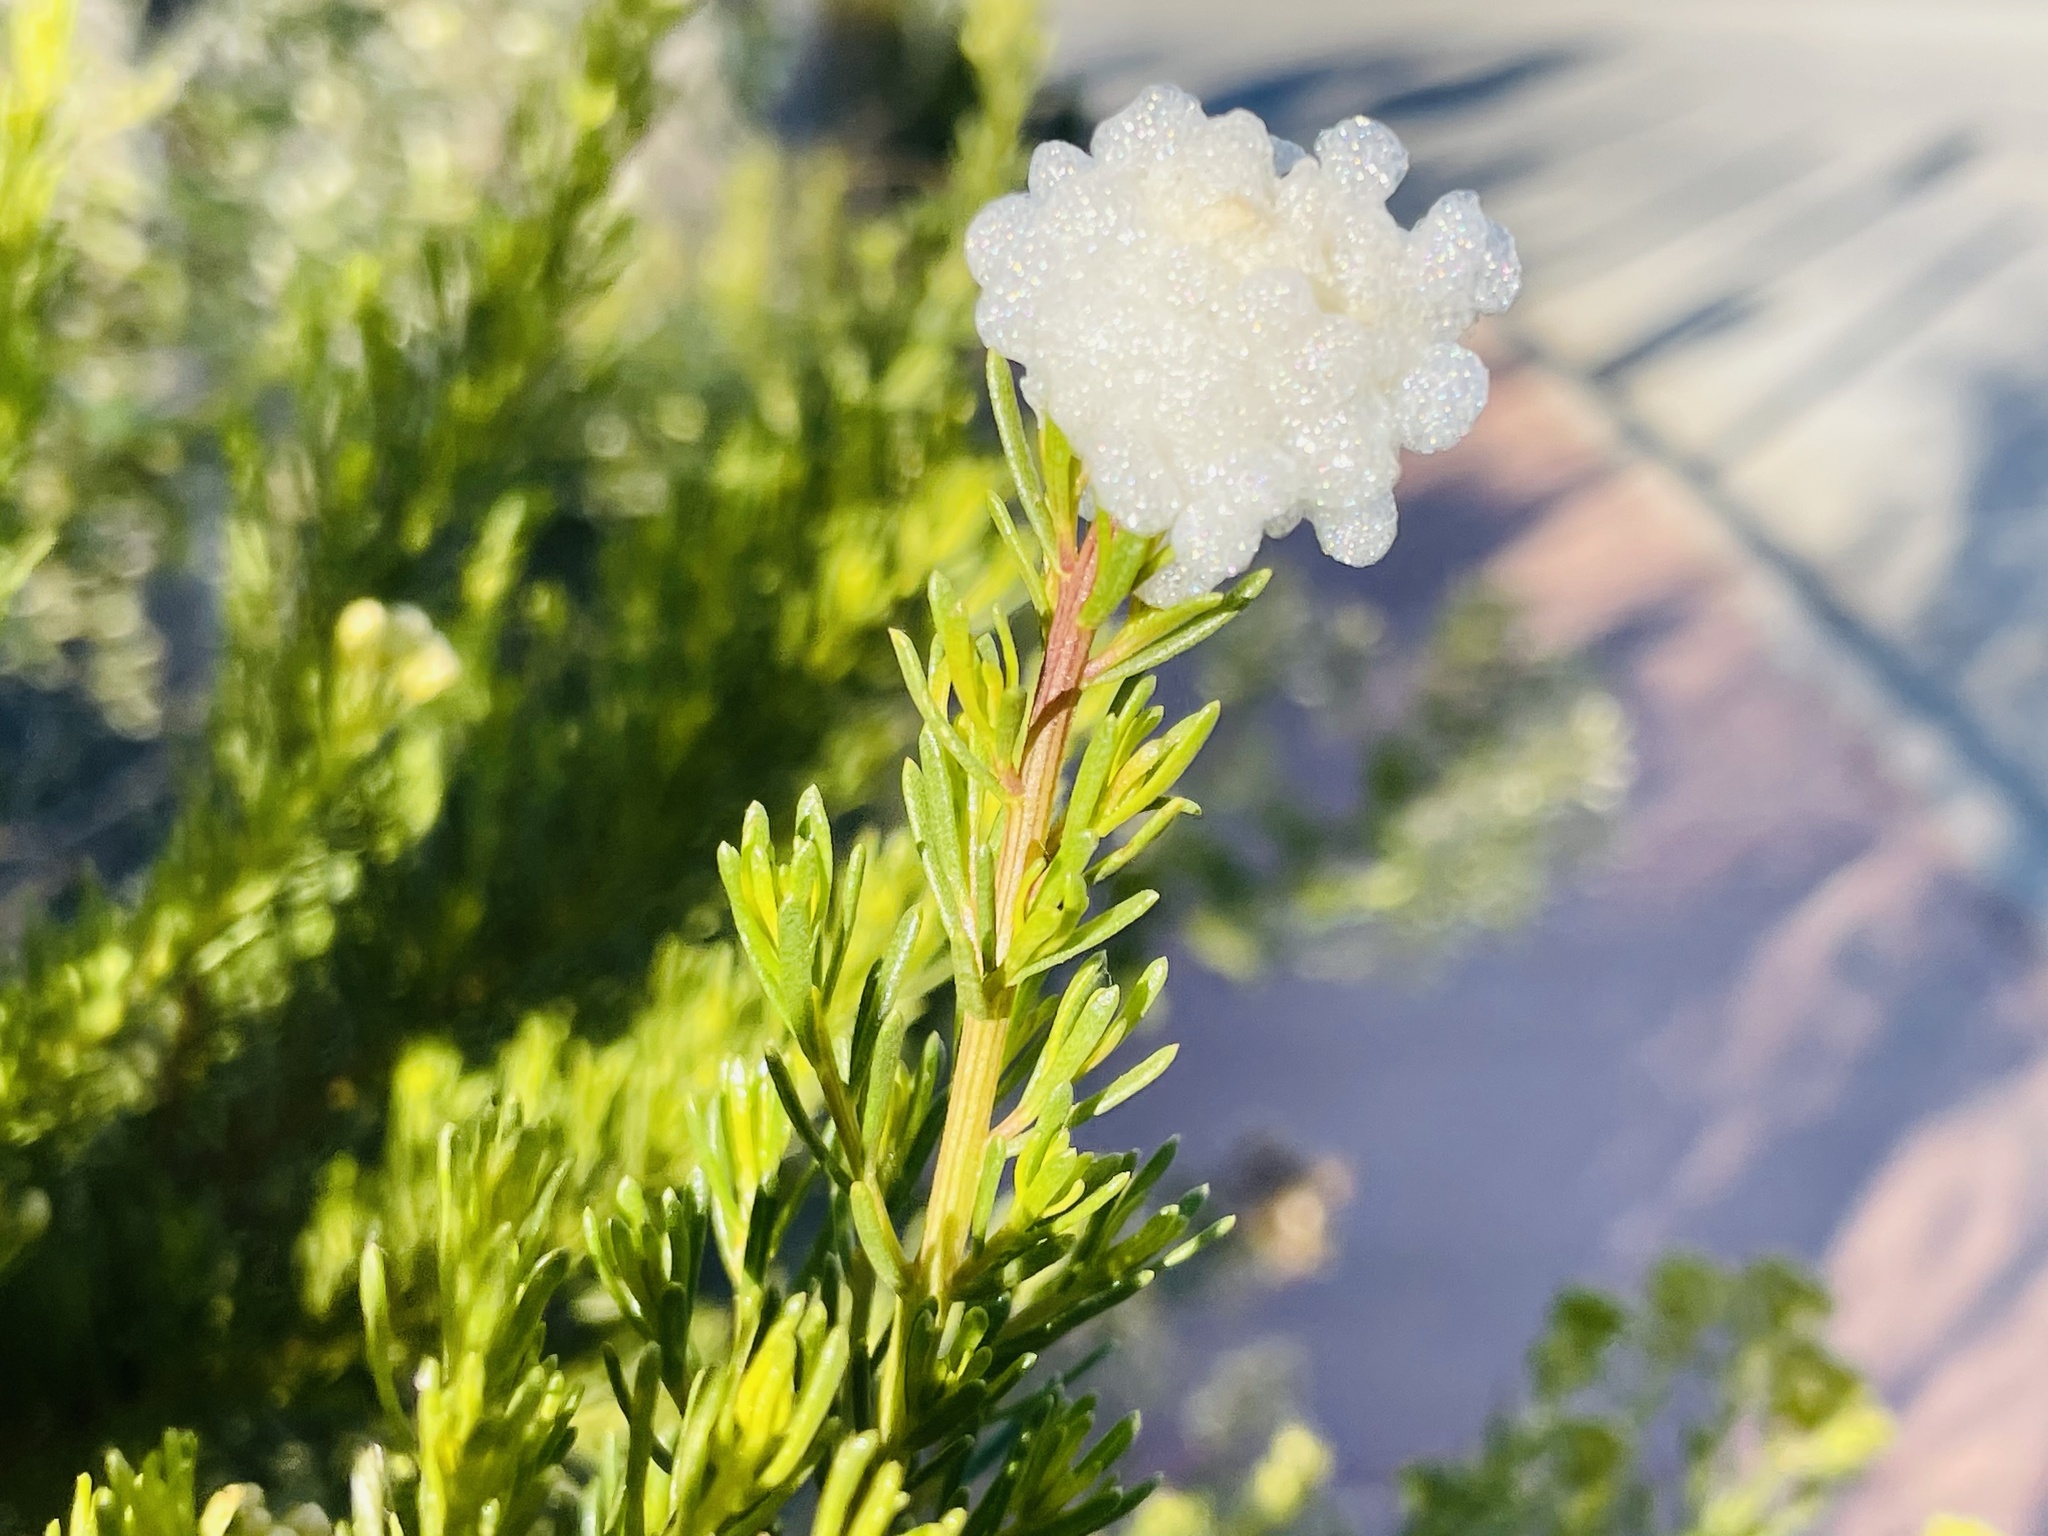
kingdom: Animalia
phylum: Arthropoda
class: Insecta
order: Diptera
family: Tephritidae
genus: Rachiptera
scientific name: Rachiptera limbata
